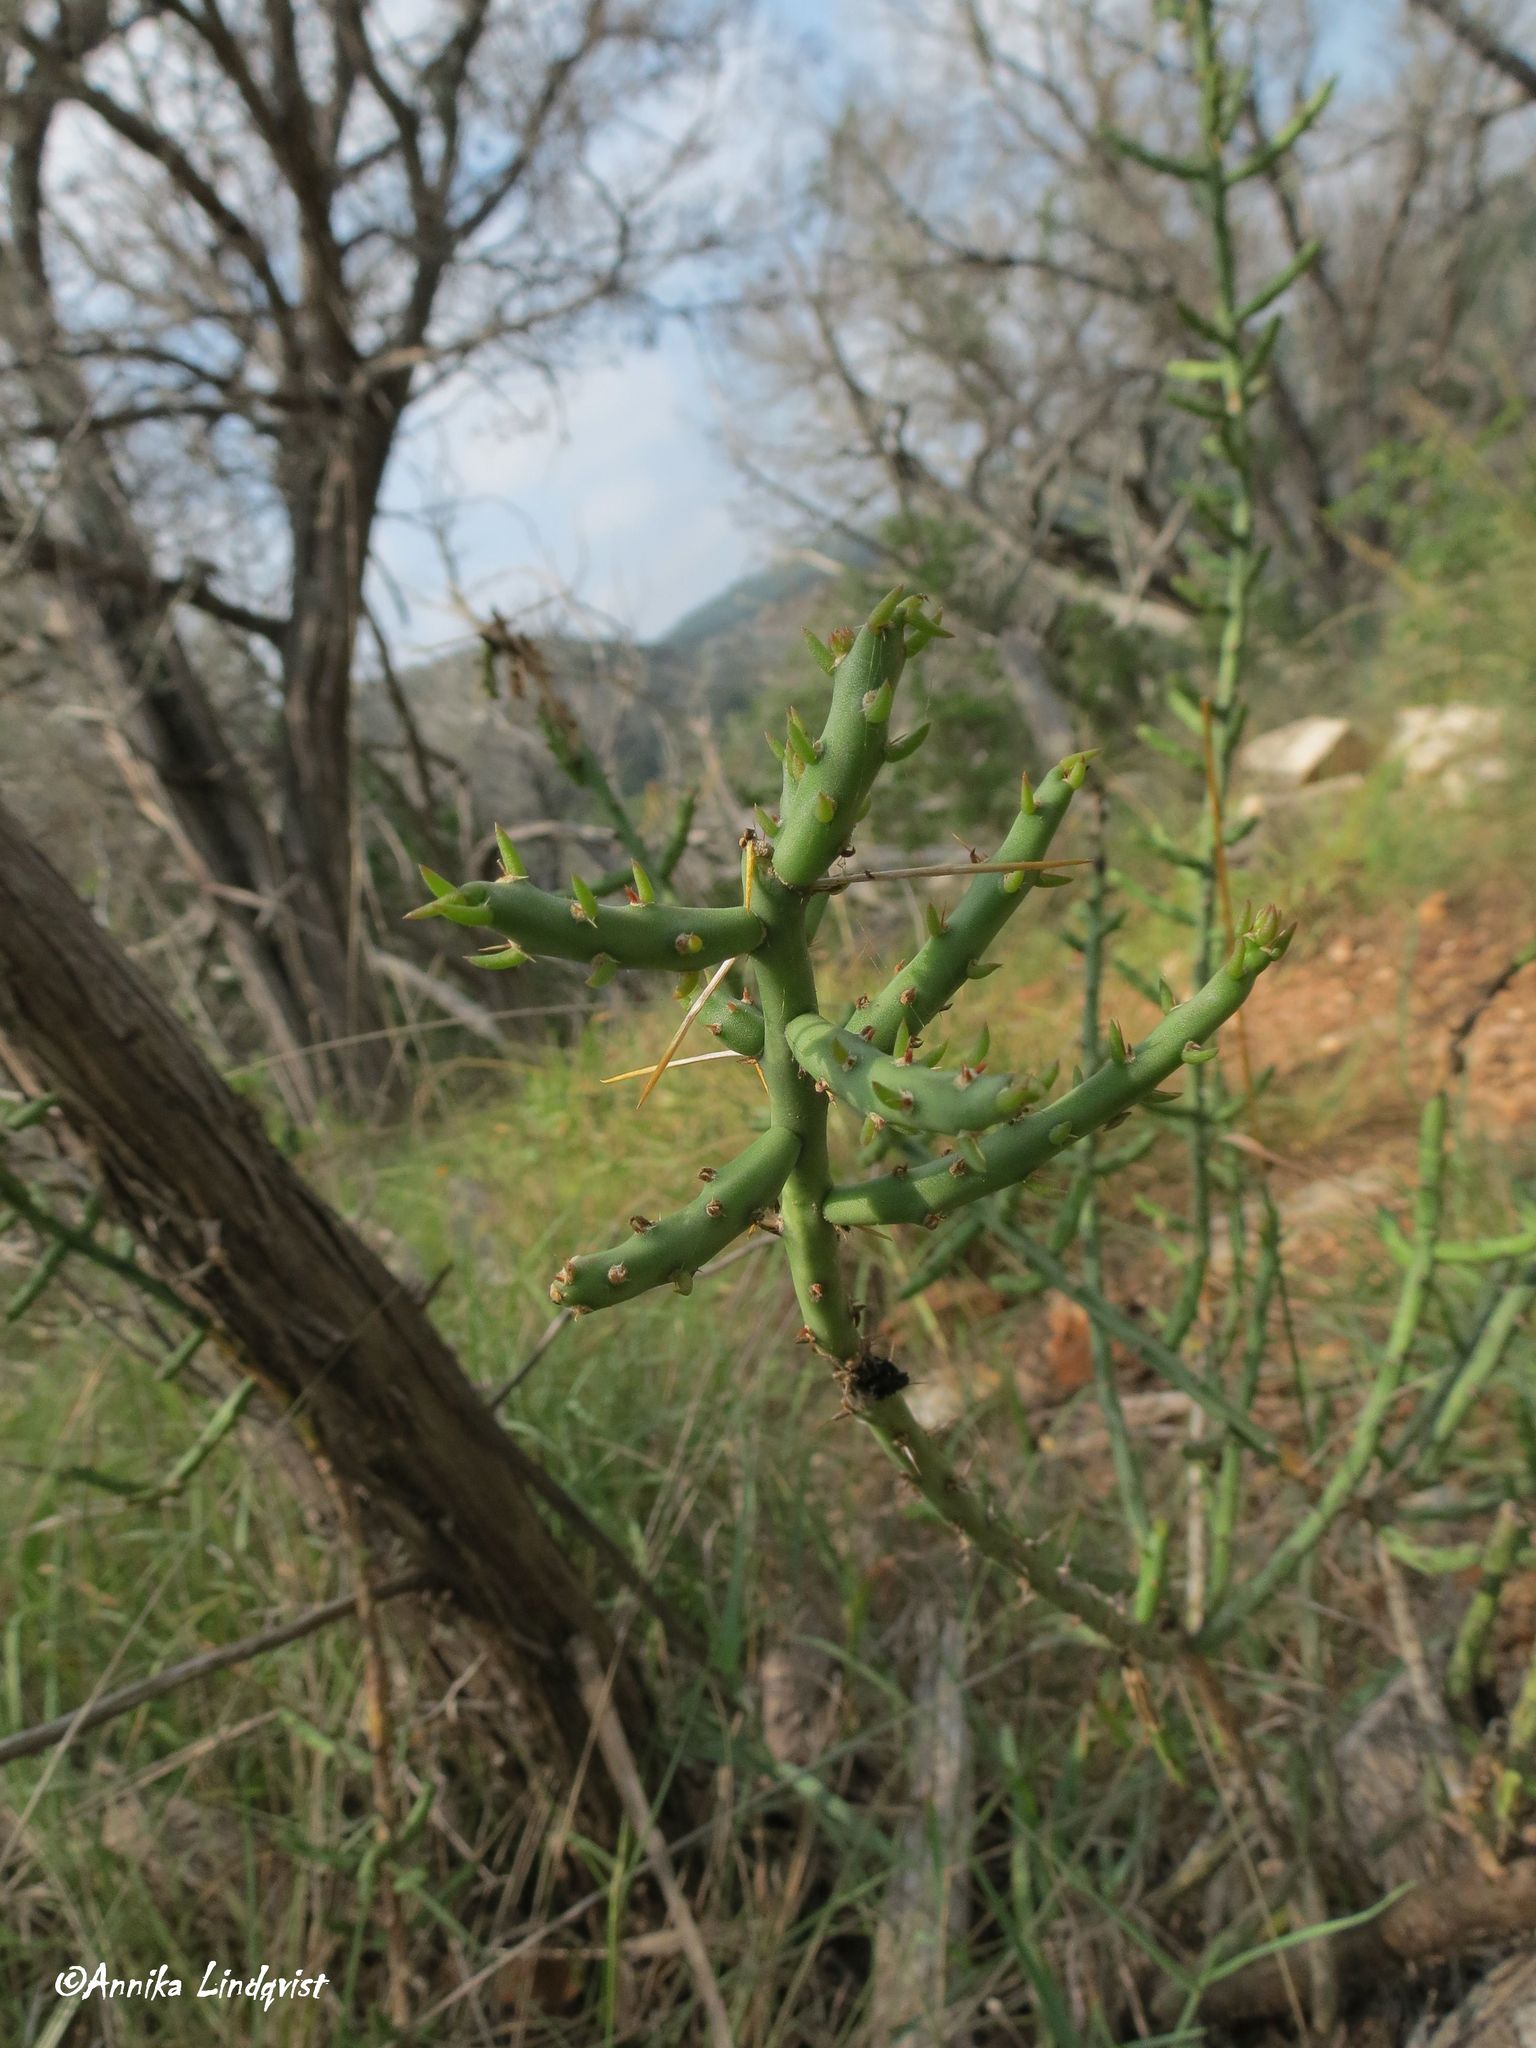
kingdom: Plantae
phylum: Tracheophyta
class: Magnoliopsida
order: Caryophyllales
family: Cactaceae
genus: Cylindropuntia
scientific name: Cylindropuntia leptocaulis
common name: Christmas cactus
